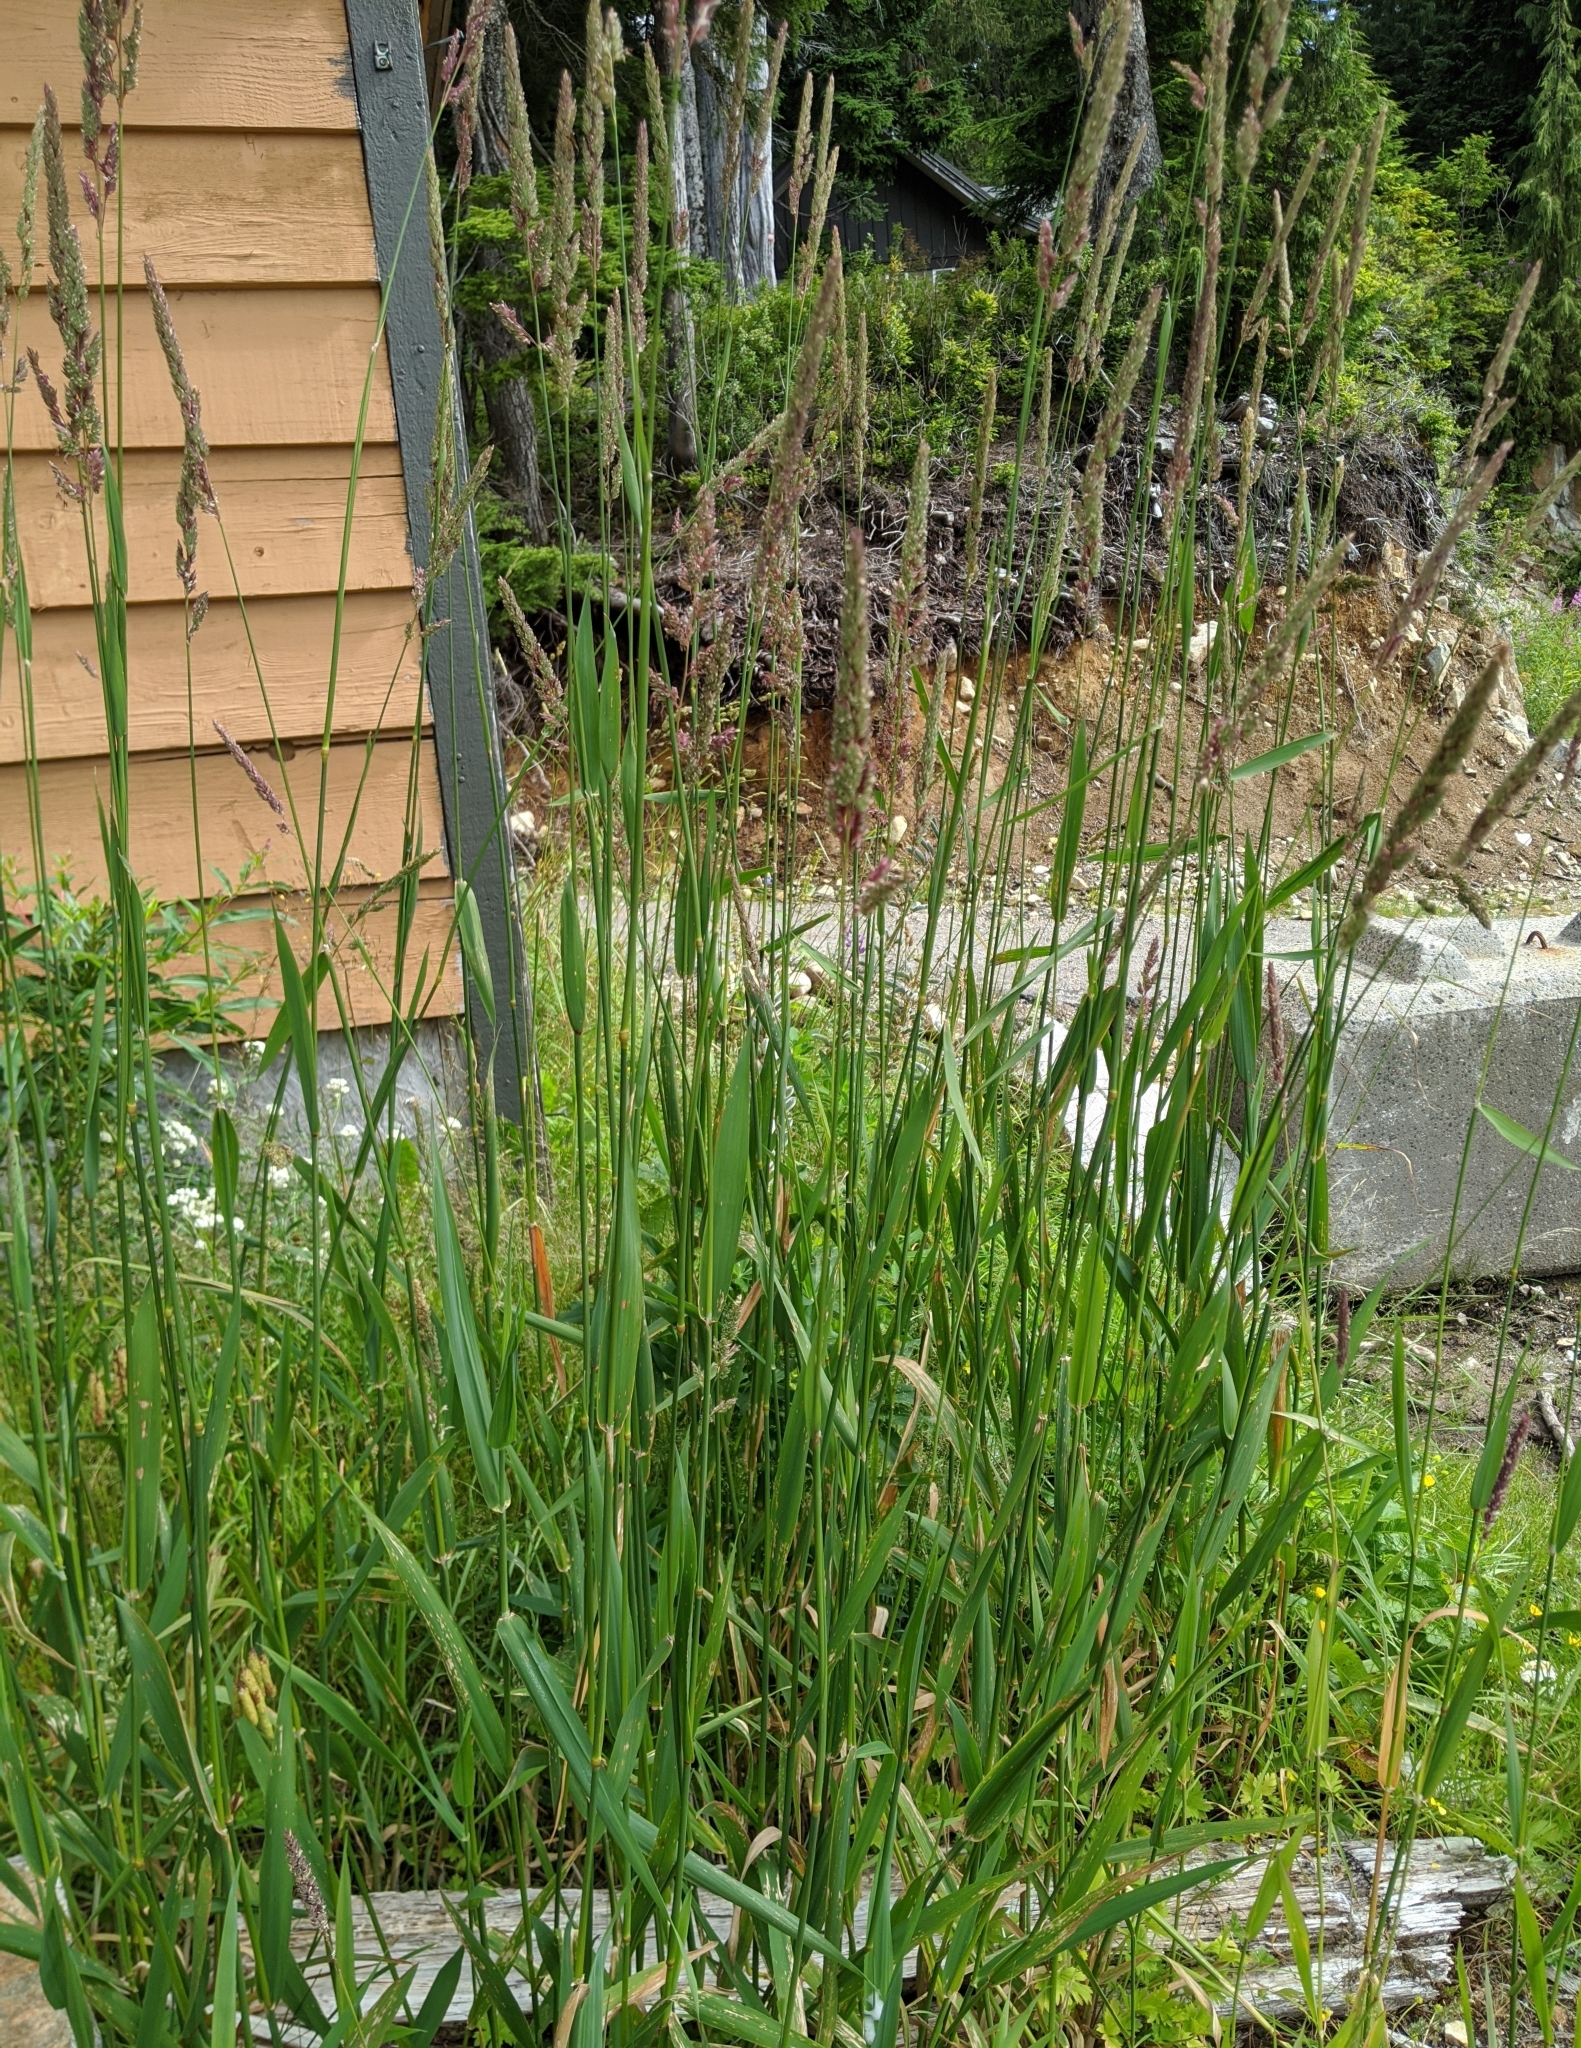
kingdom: Plantae
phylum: Tracheophyta
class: Liliopsida
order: Poales
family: Poaceae
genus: Holcus
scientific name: Holcus lanatus
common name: Yorkshire-fog
